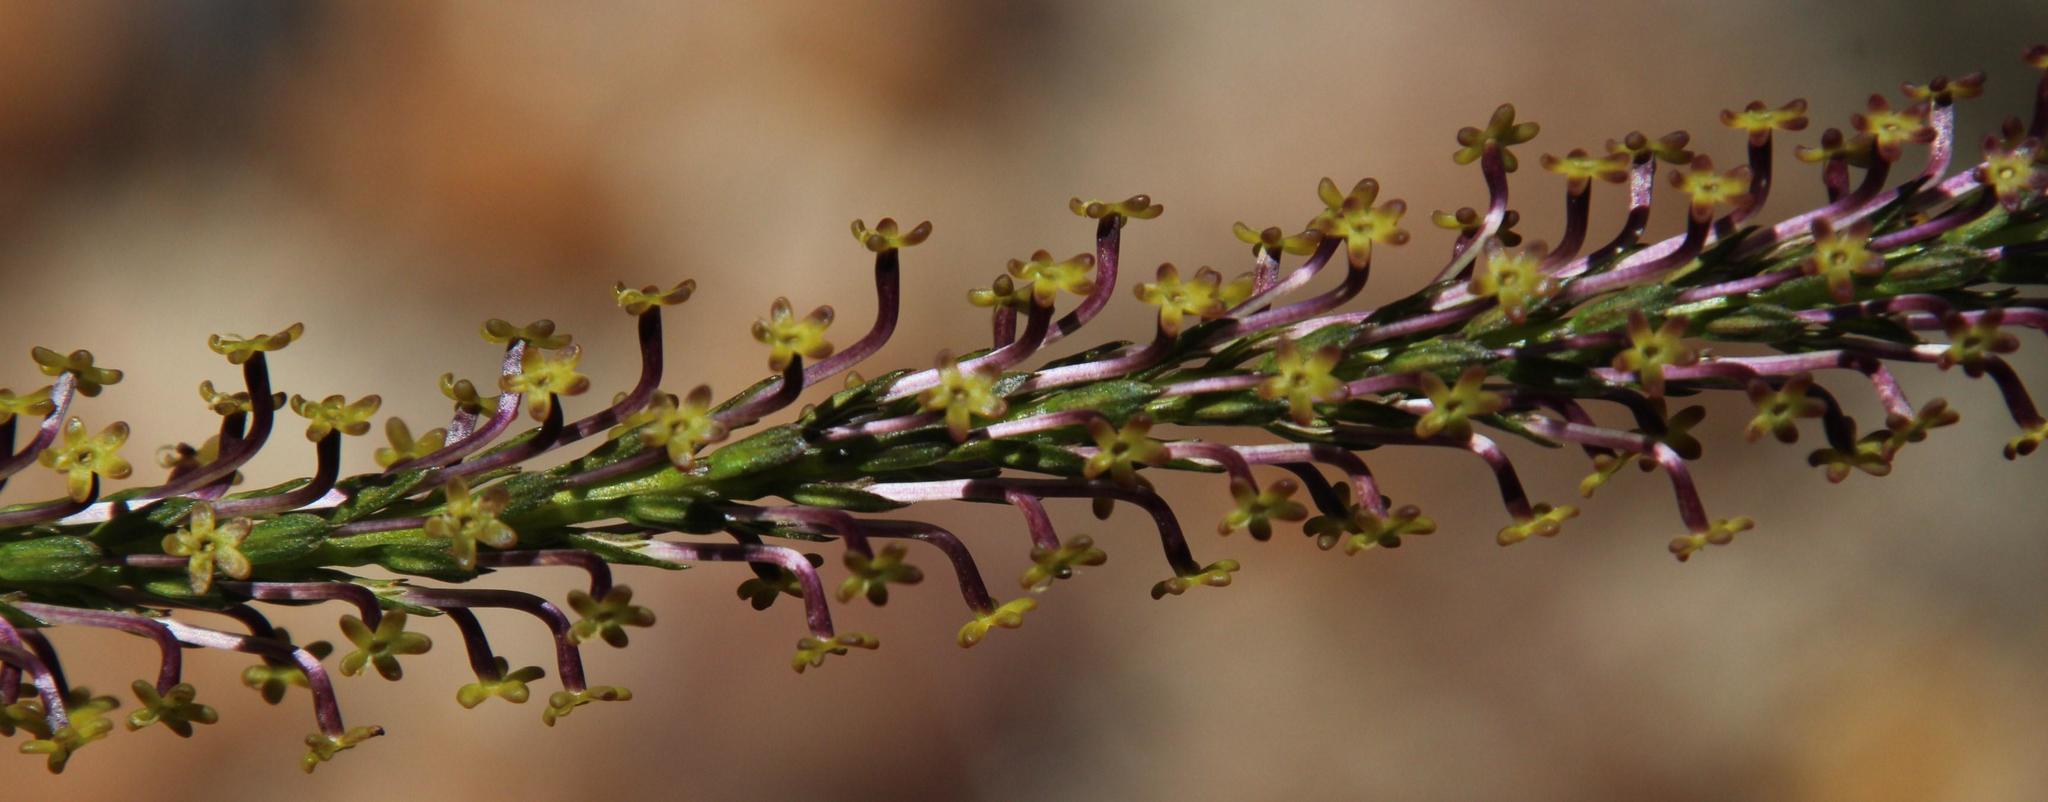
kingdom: Plantae
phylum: Tracheophyta
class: Magnoliopsida
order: Lamiales
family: Scrophulariaceae
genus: Microdon
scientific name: Microdon dubius
